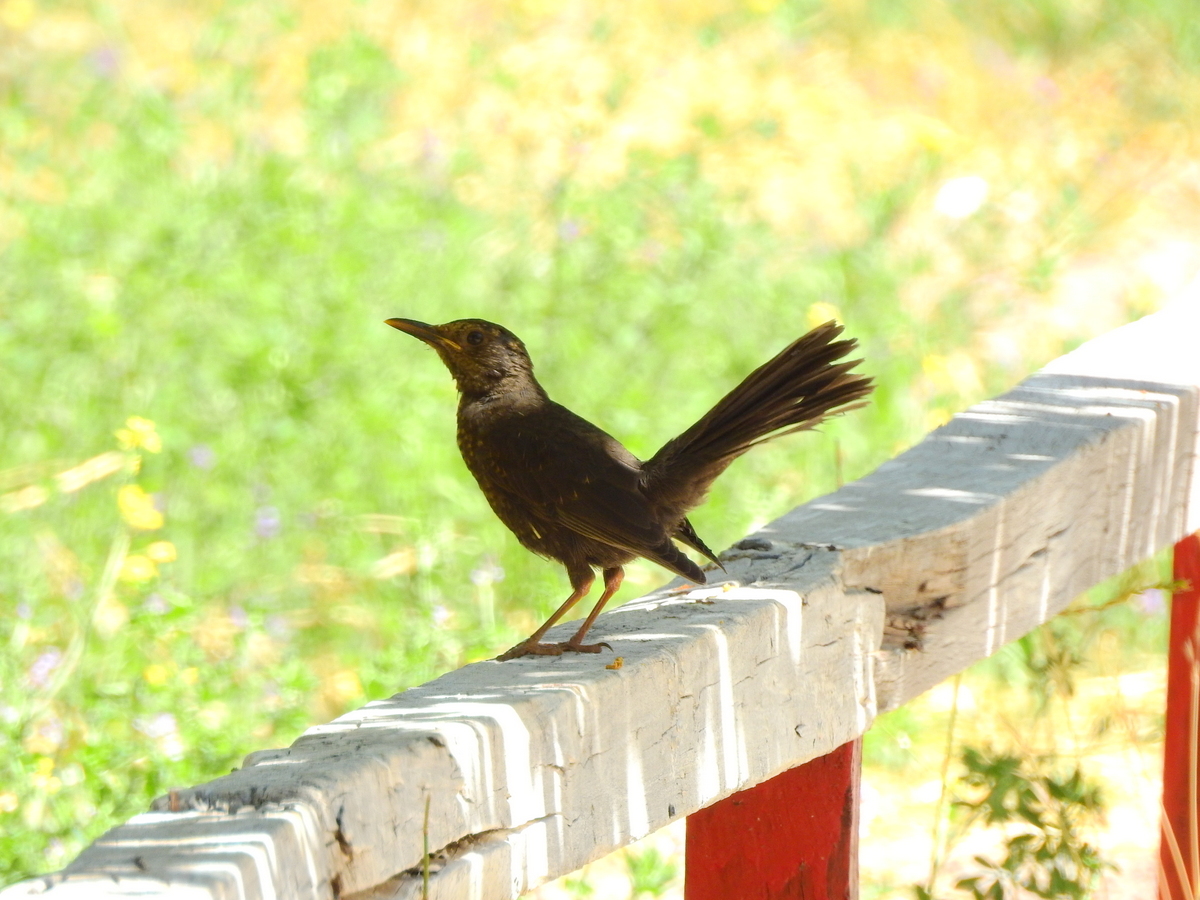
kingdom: Animalia
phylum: Chordata
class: Aves
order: Passeriformes
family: Turdidae
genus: Turdus
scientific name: Turdus chiguanco
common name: Chiguanco thrush
